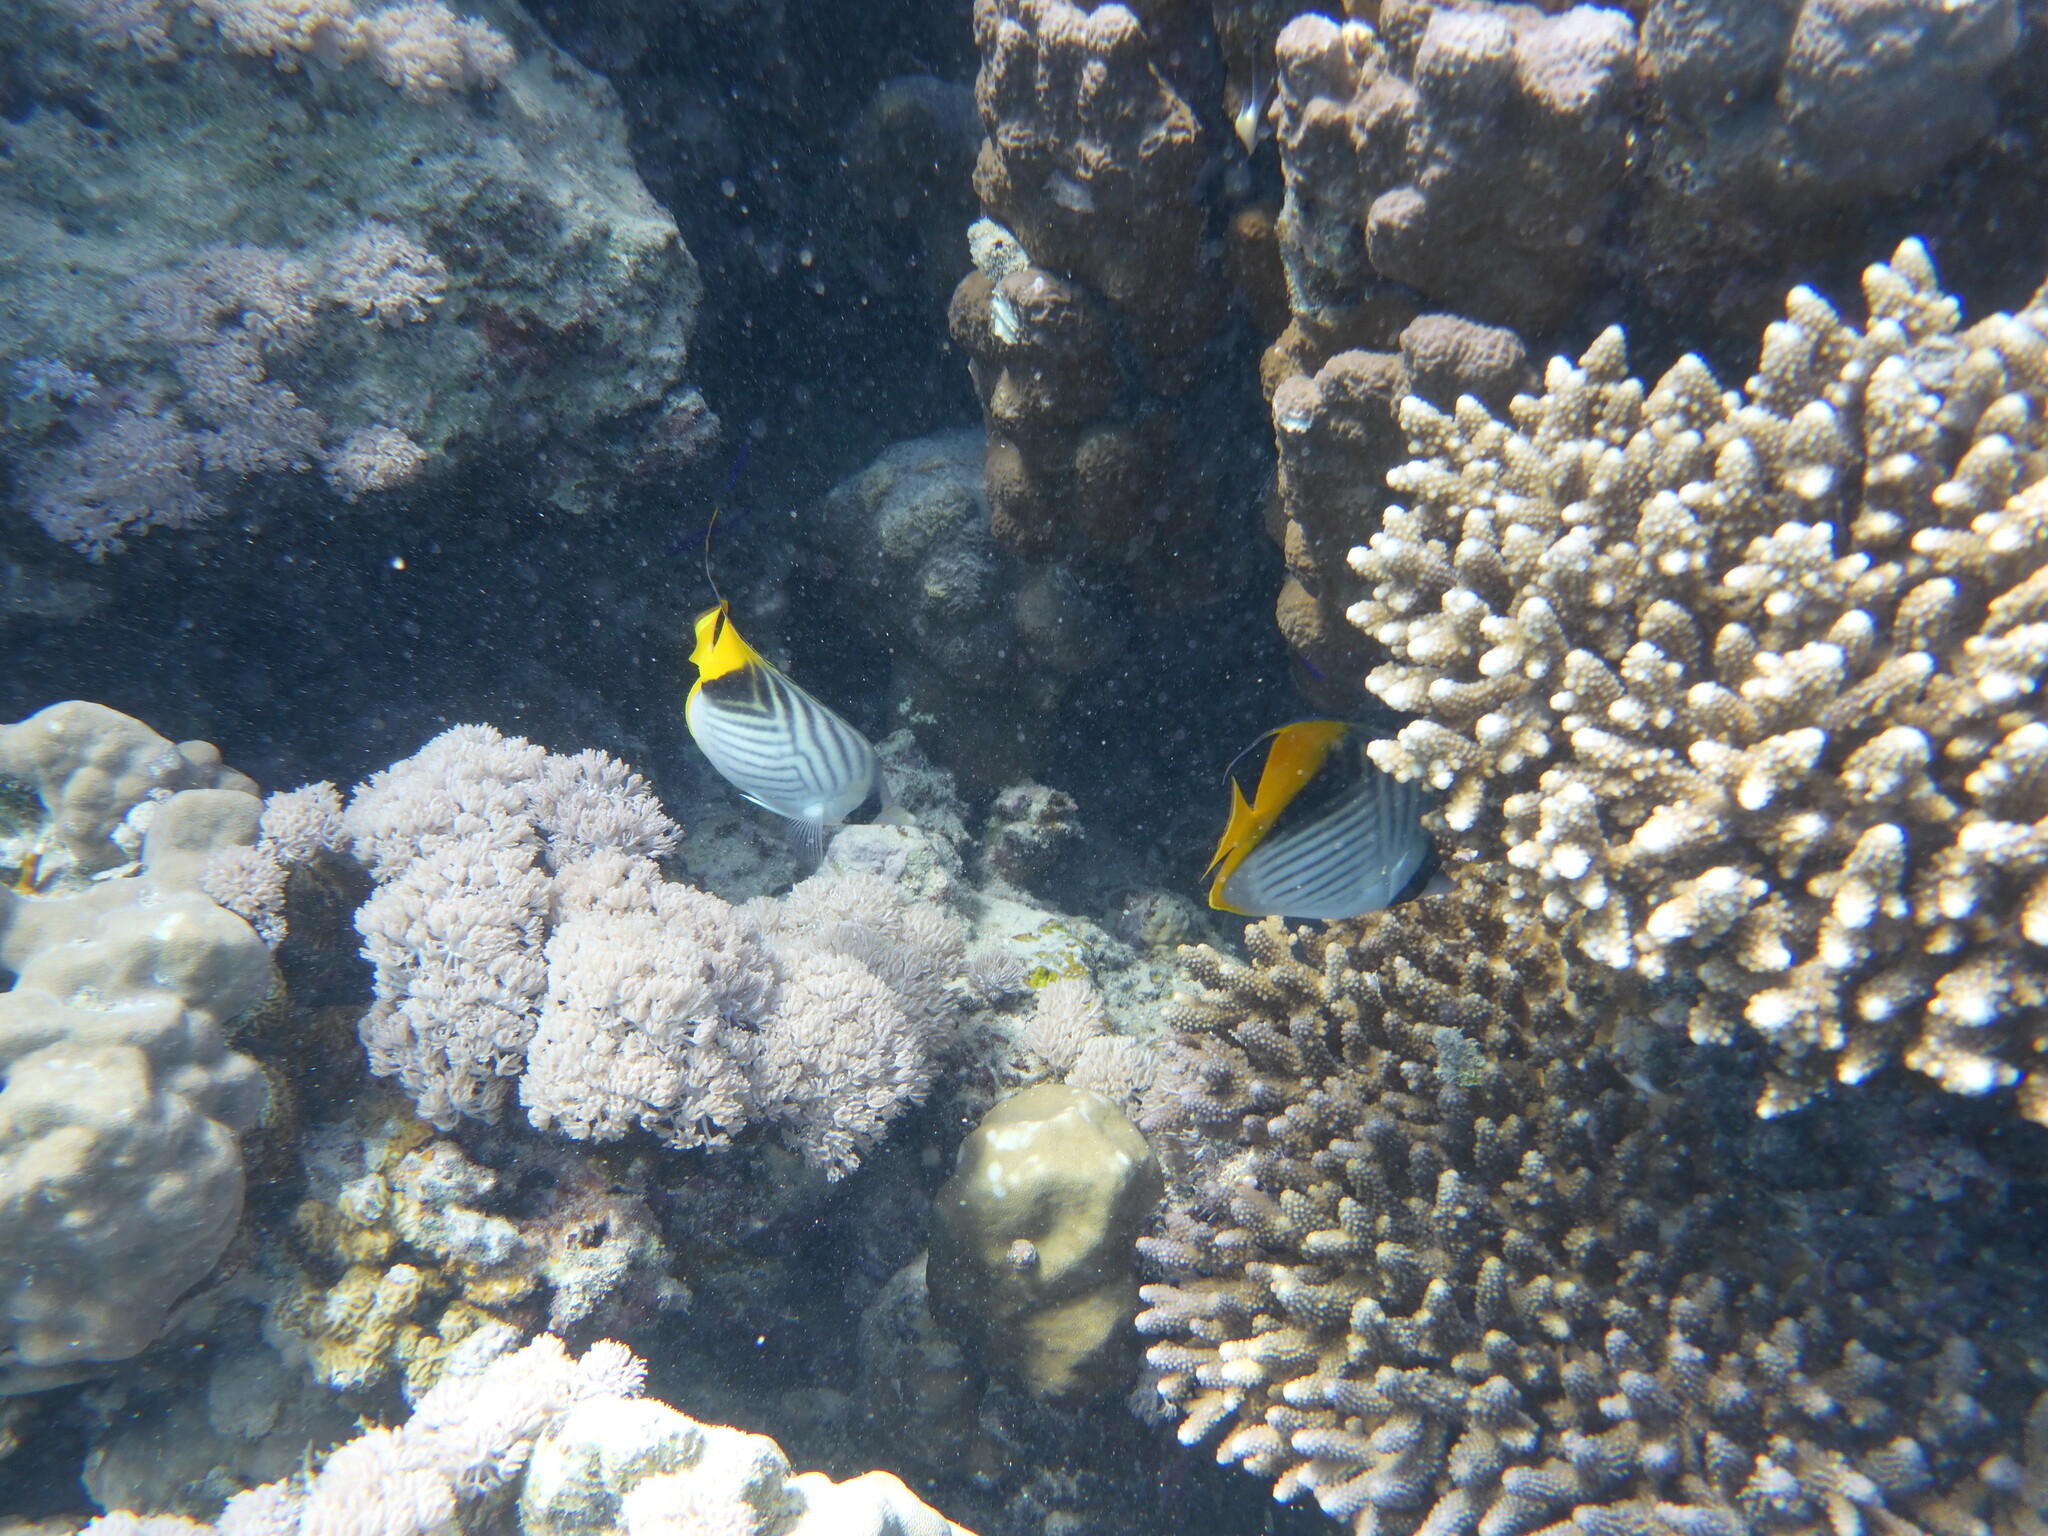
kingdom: Animalia
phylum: Chordata
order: Perciformes
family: Chaetodontidae
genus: Chaetodon
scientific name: Chaetodon auriga
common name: Threadfin butterflyfish
